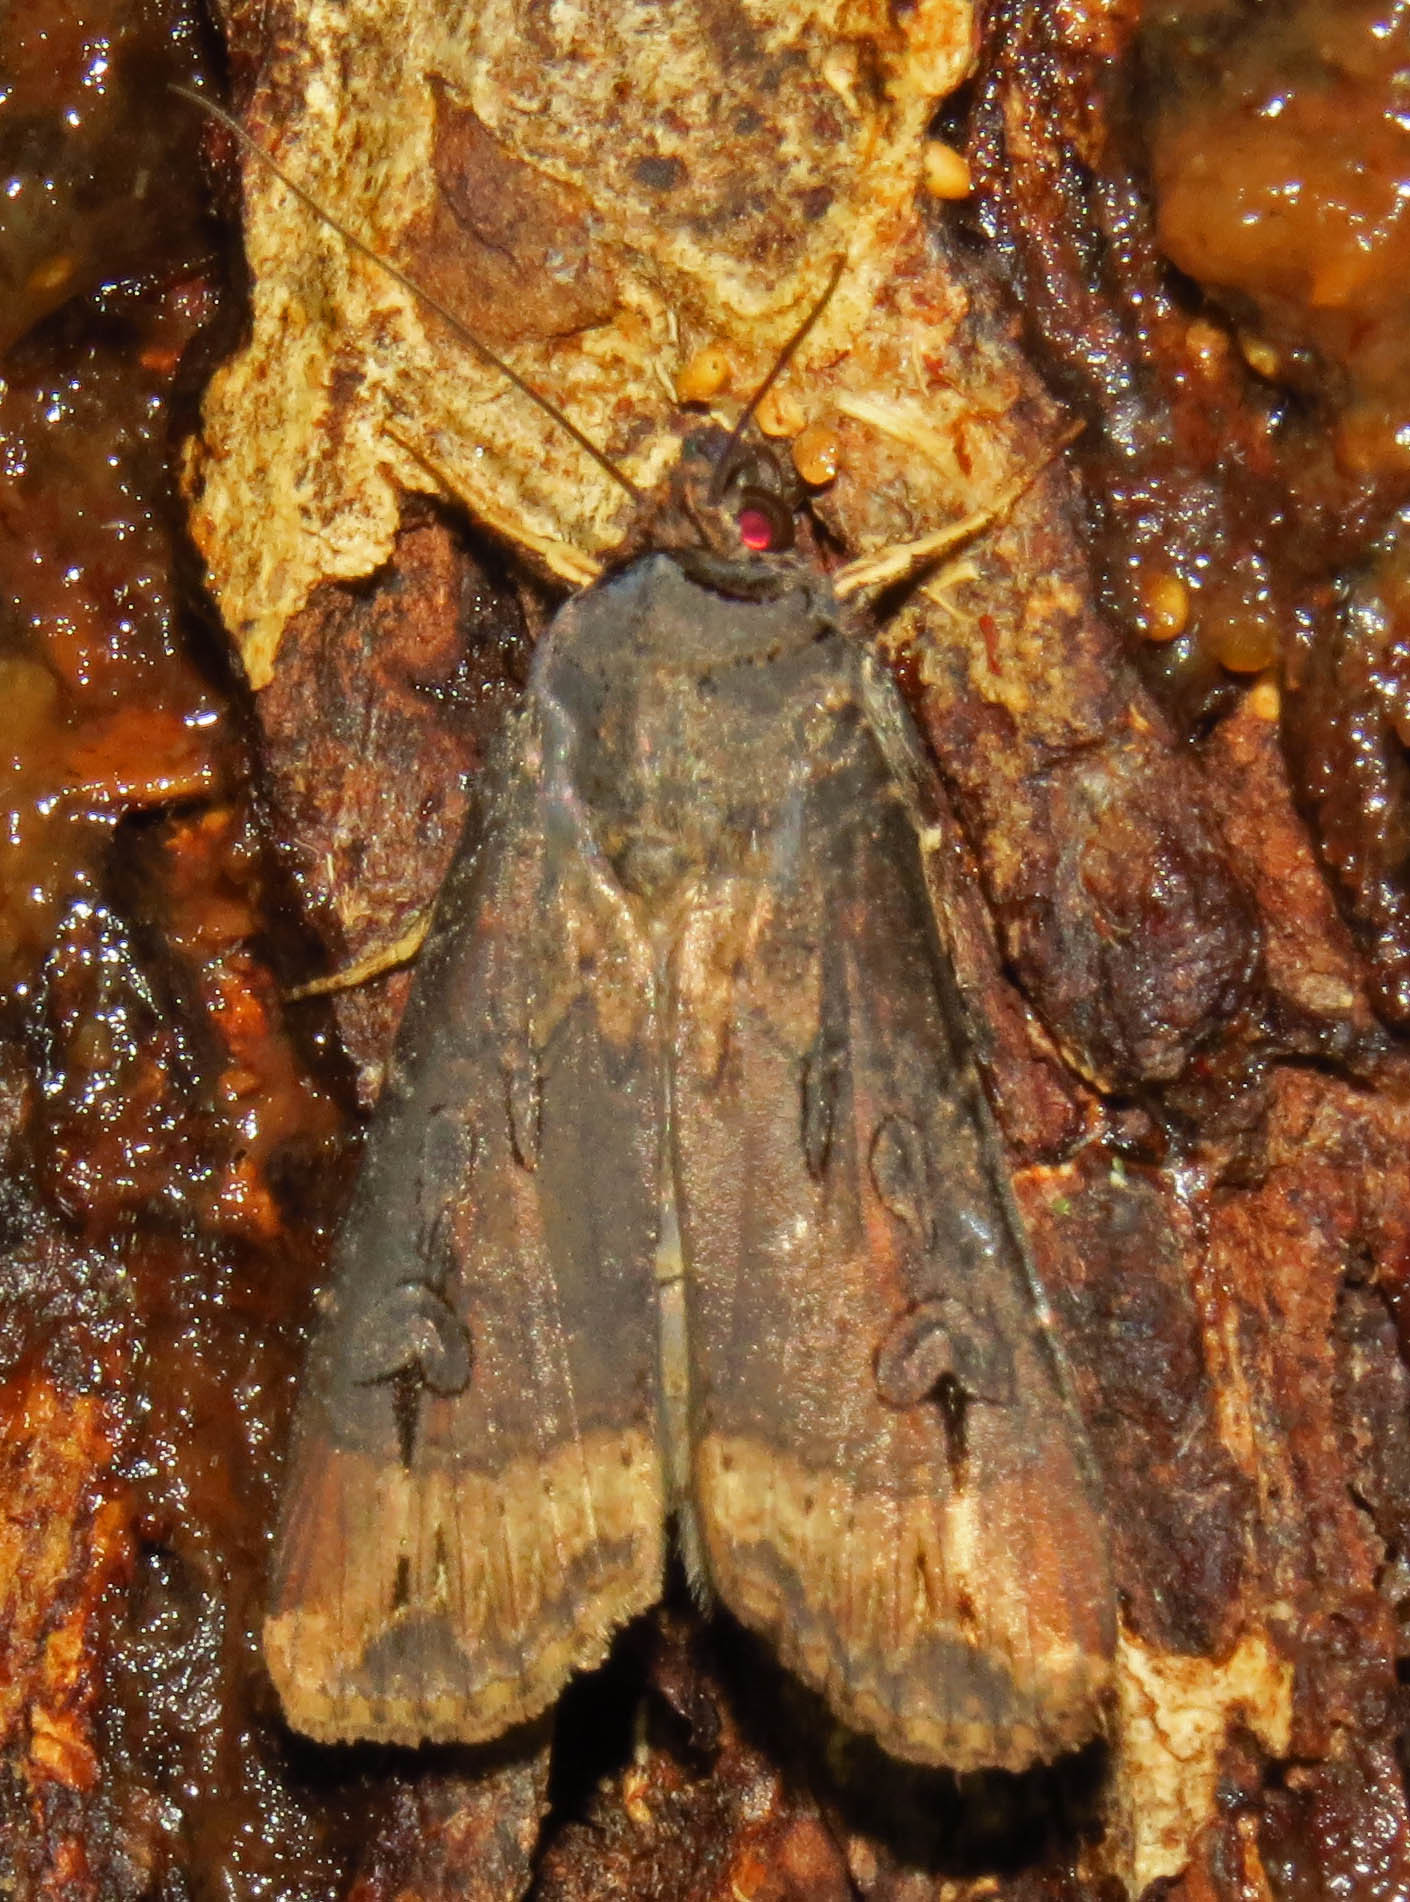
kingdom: Animalia
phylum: Arthropoda
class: Insecta
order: Lepidoptera
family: Noctuidae
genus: Agrotis
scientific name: Agrotis ipsilon
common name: Dark sword-grass
